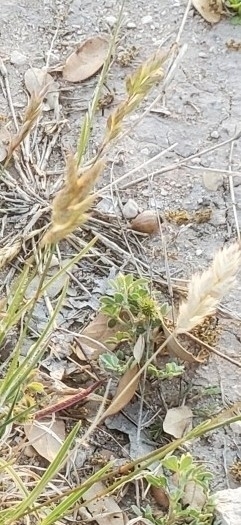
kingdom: Plantae
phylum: Tracheophyta
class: Liliopsida
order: Poales
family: Poaceae
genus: Erioneuron
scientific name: Erioneuron pilosum
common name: Hairy woolly grass
